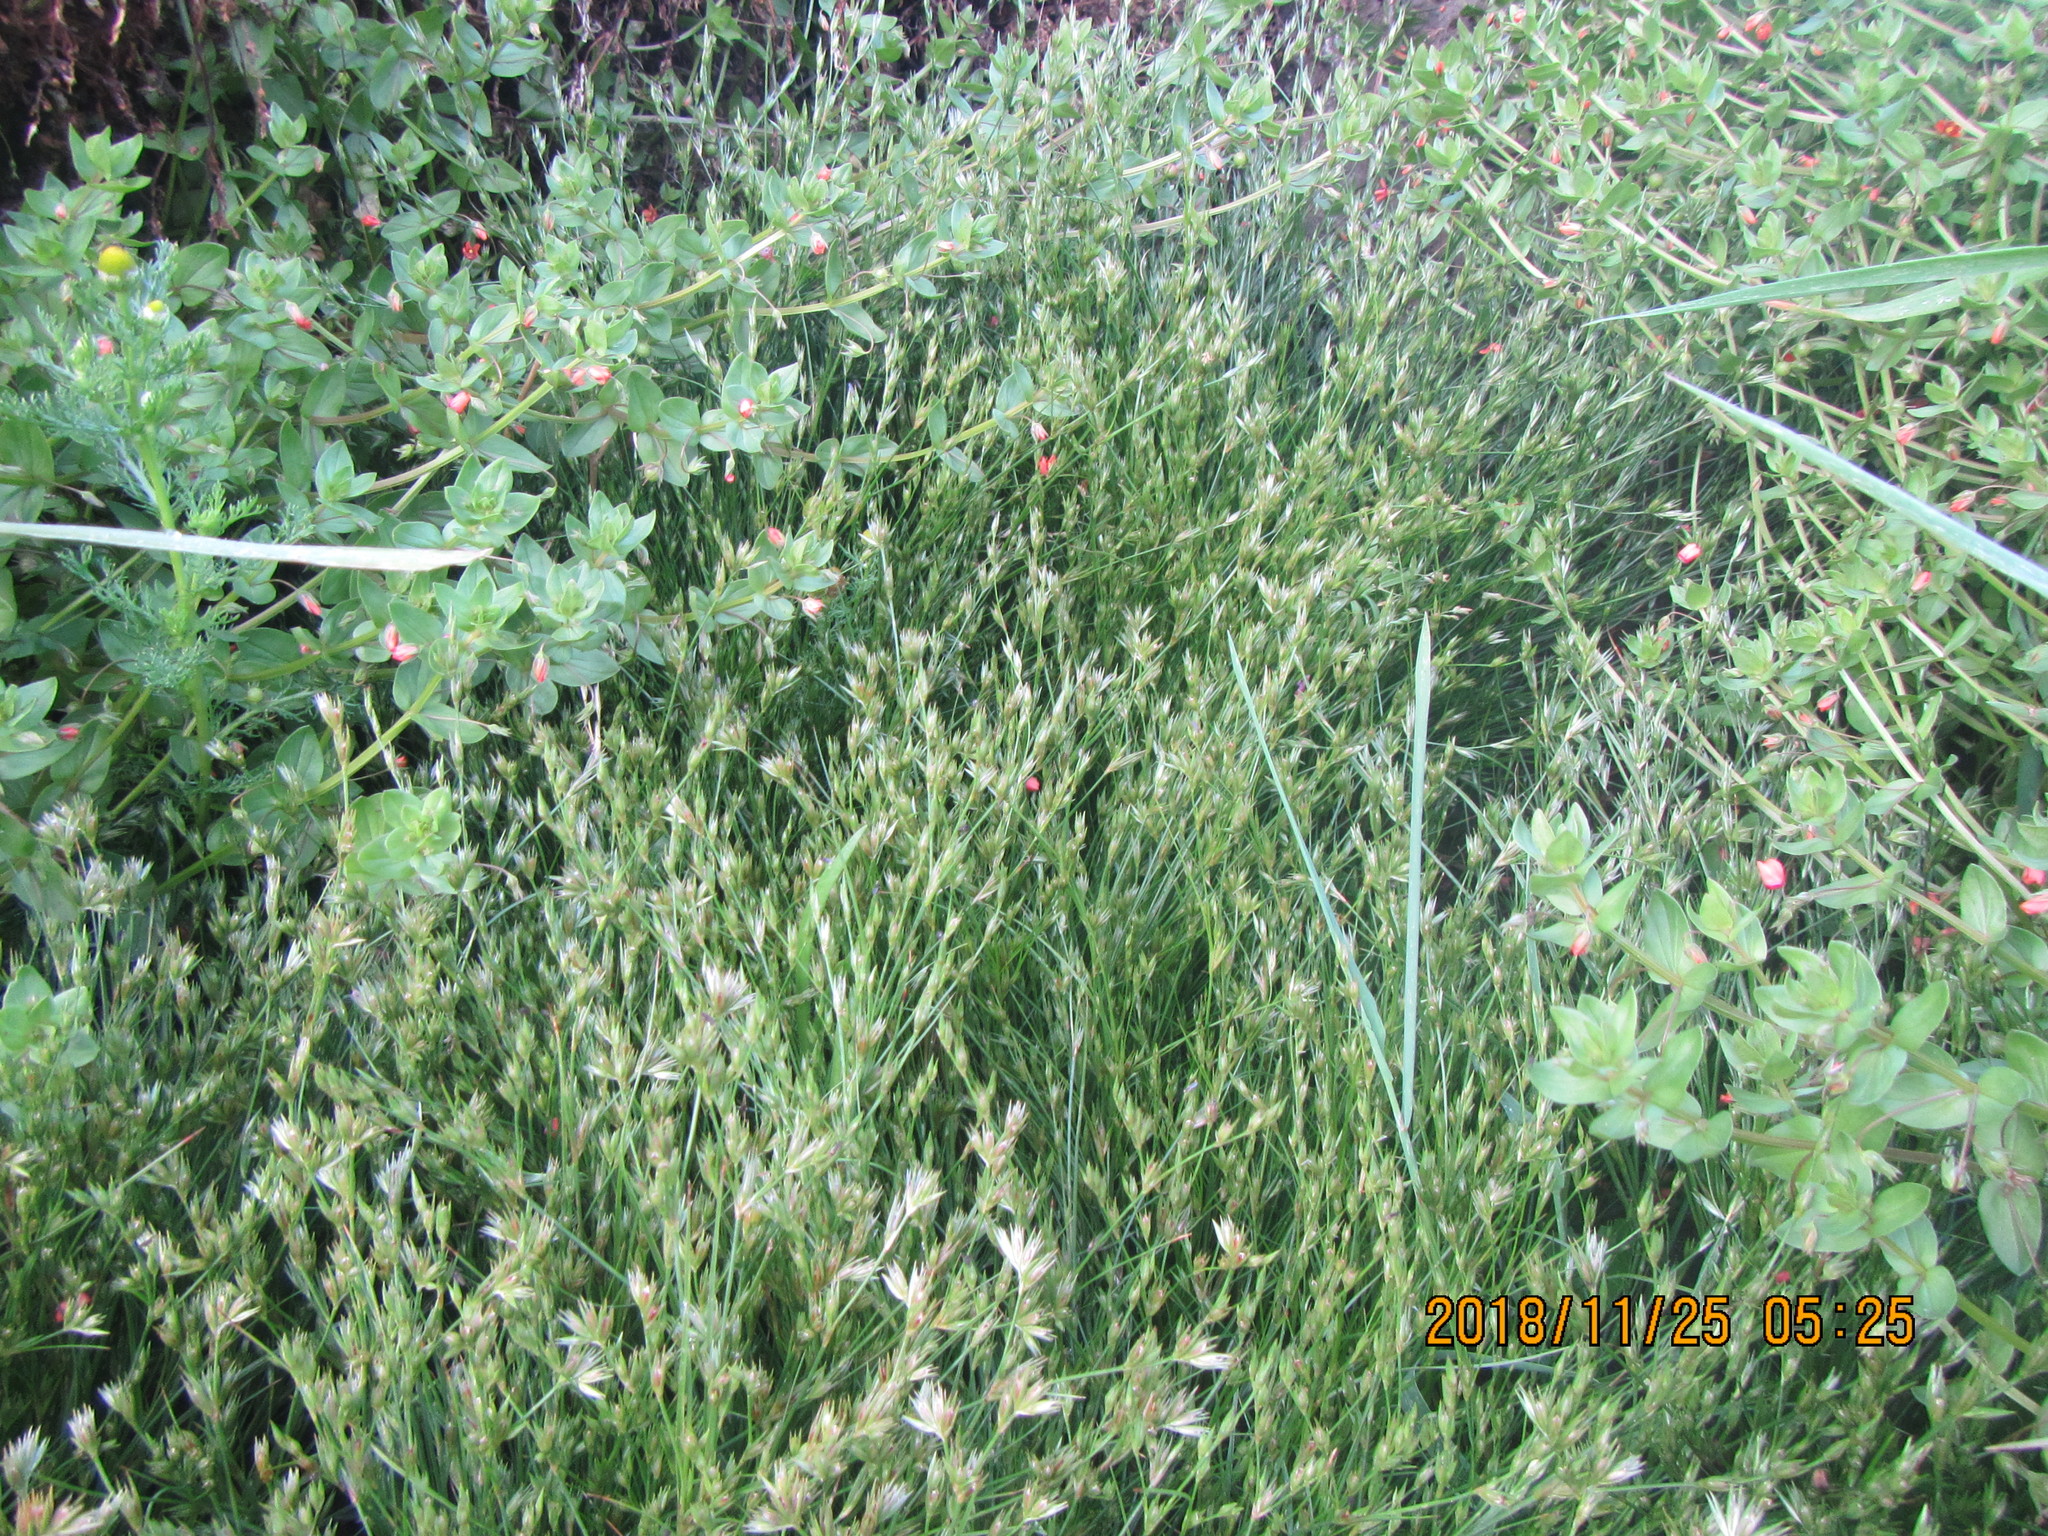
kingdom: Plantae
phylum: Tracheophyta
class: Liliopsida
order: Poales
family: Juncaceae
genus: Juncus
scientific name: Juncus bufonius
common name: Toad rush
